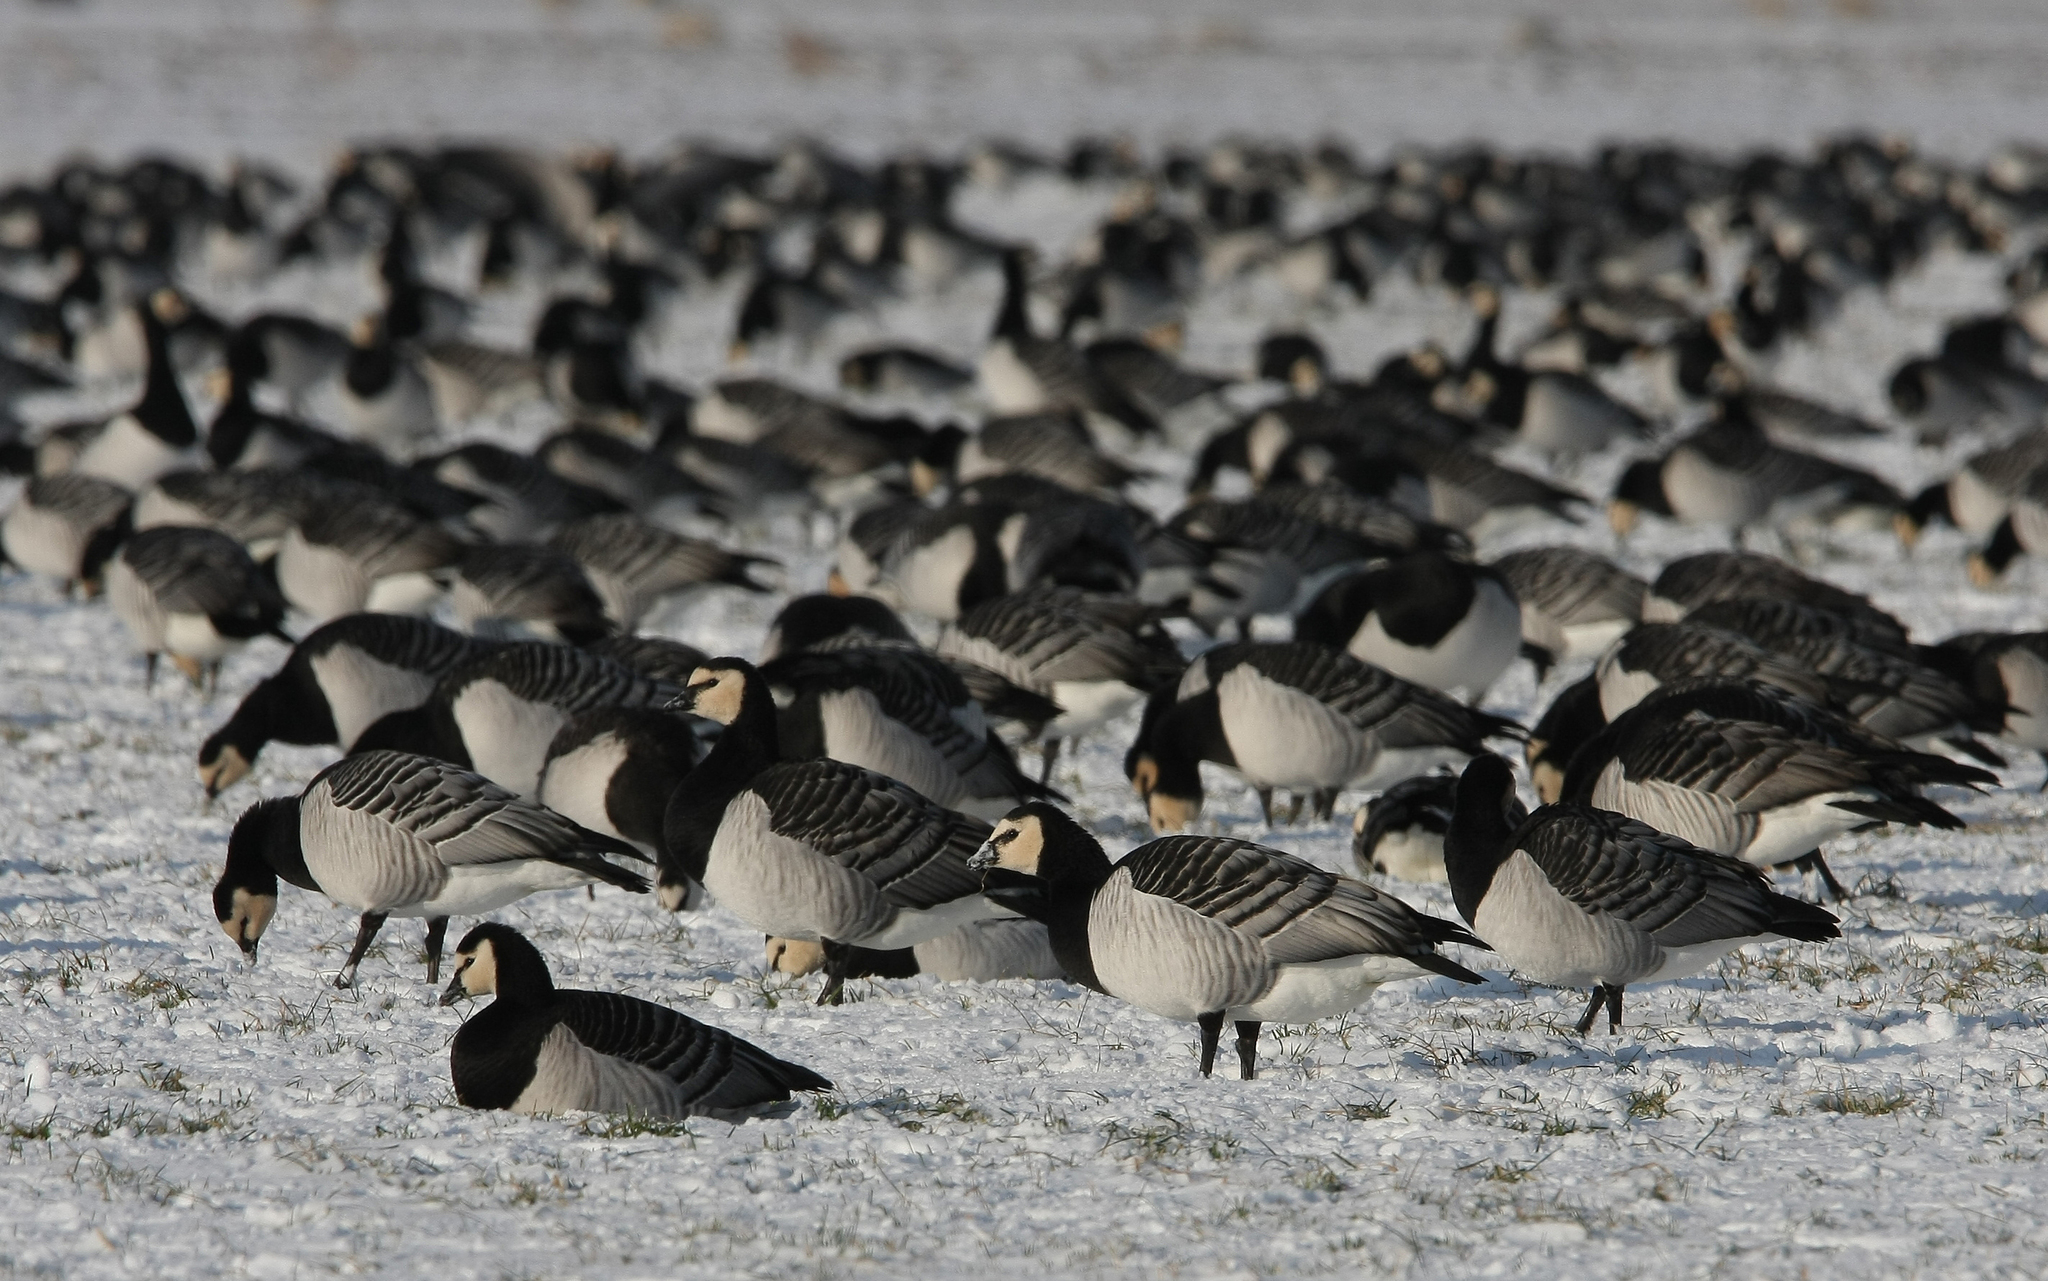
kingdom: Animalia
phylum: Chordata
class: Aves
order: Anseriformes
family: Anatidae
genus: Branta
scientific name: Branta leucopsis
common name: Barnacle goose
